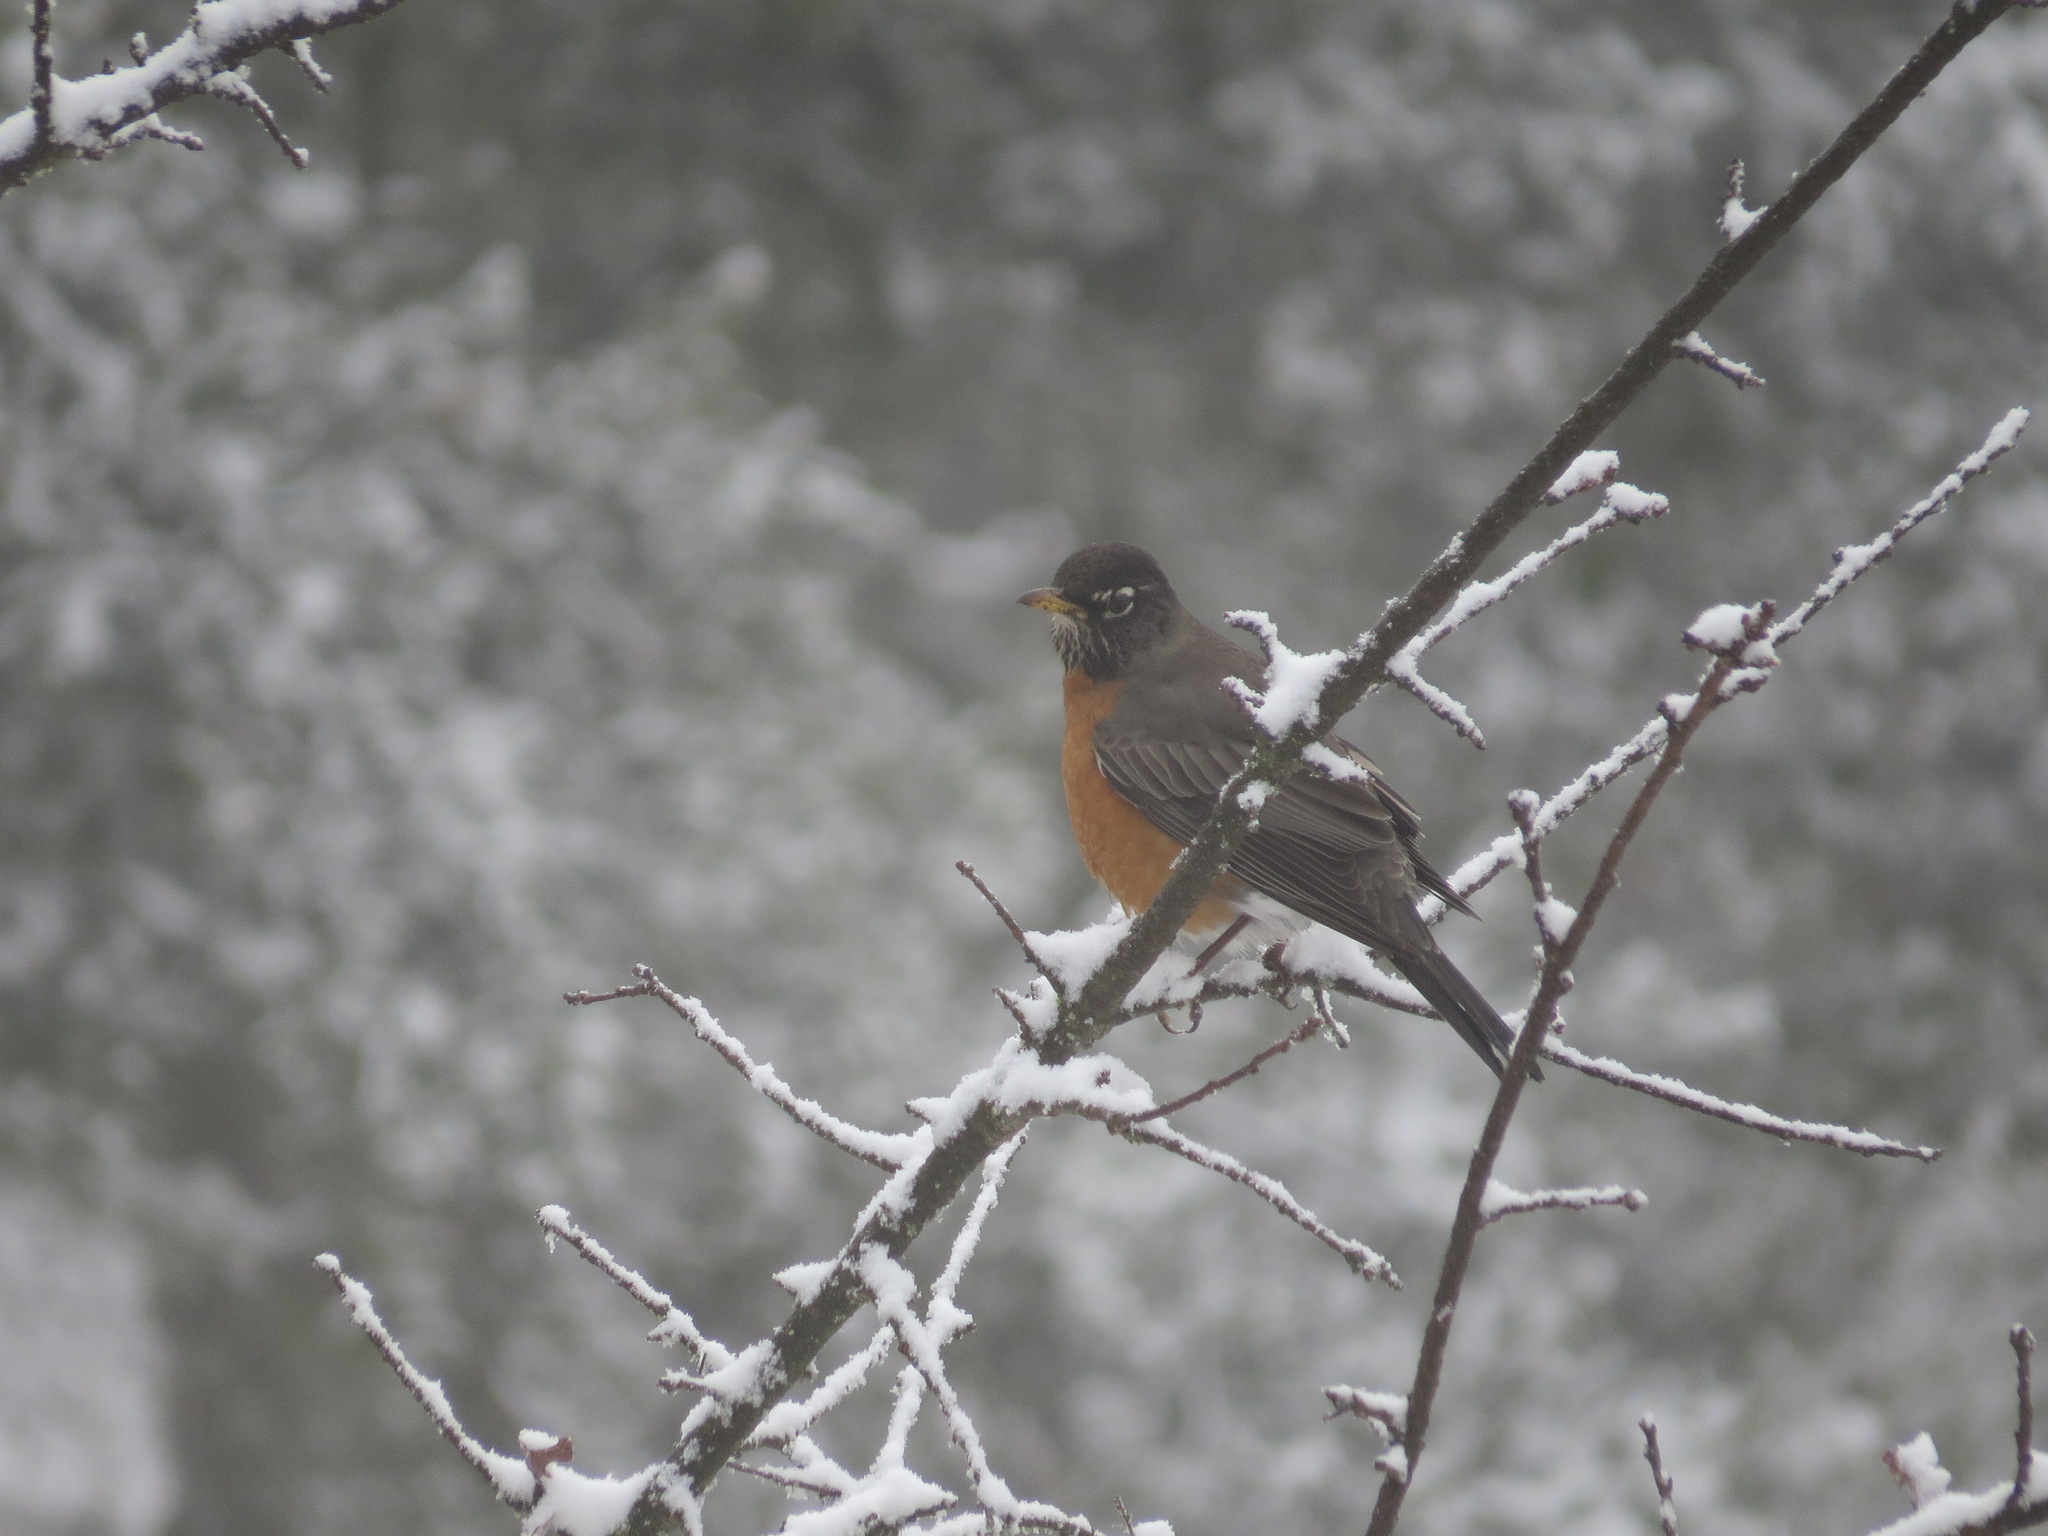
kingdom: Animalia
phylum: Chordata
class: Aves
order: Passeriformes
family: Turdidae
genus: Turdus
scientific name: Turdus migratorius
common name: American robin
